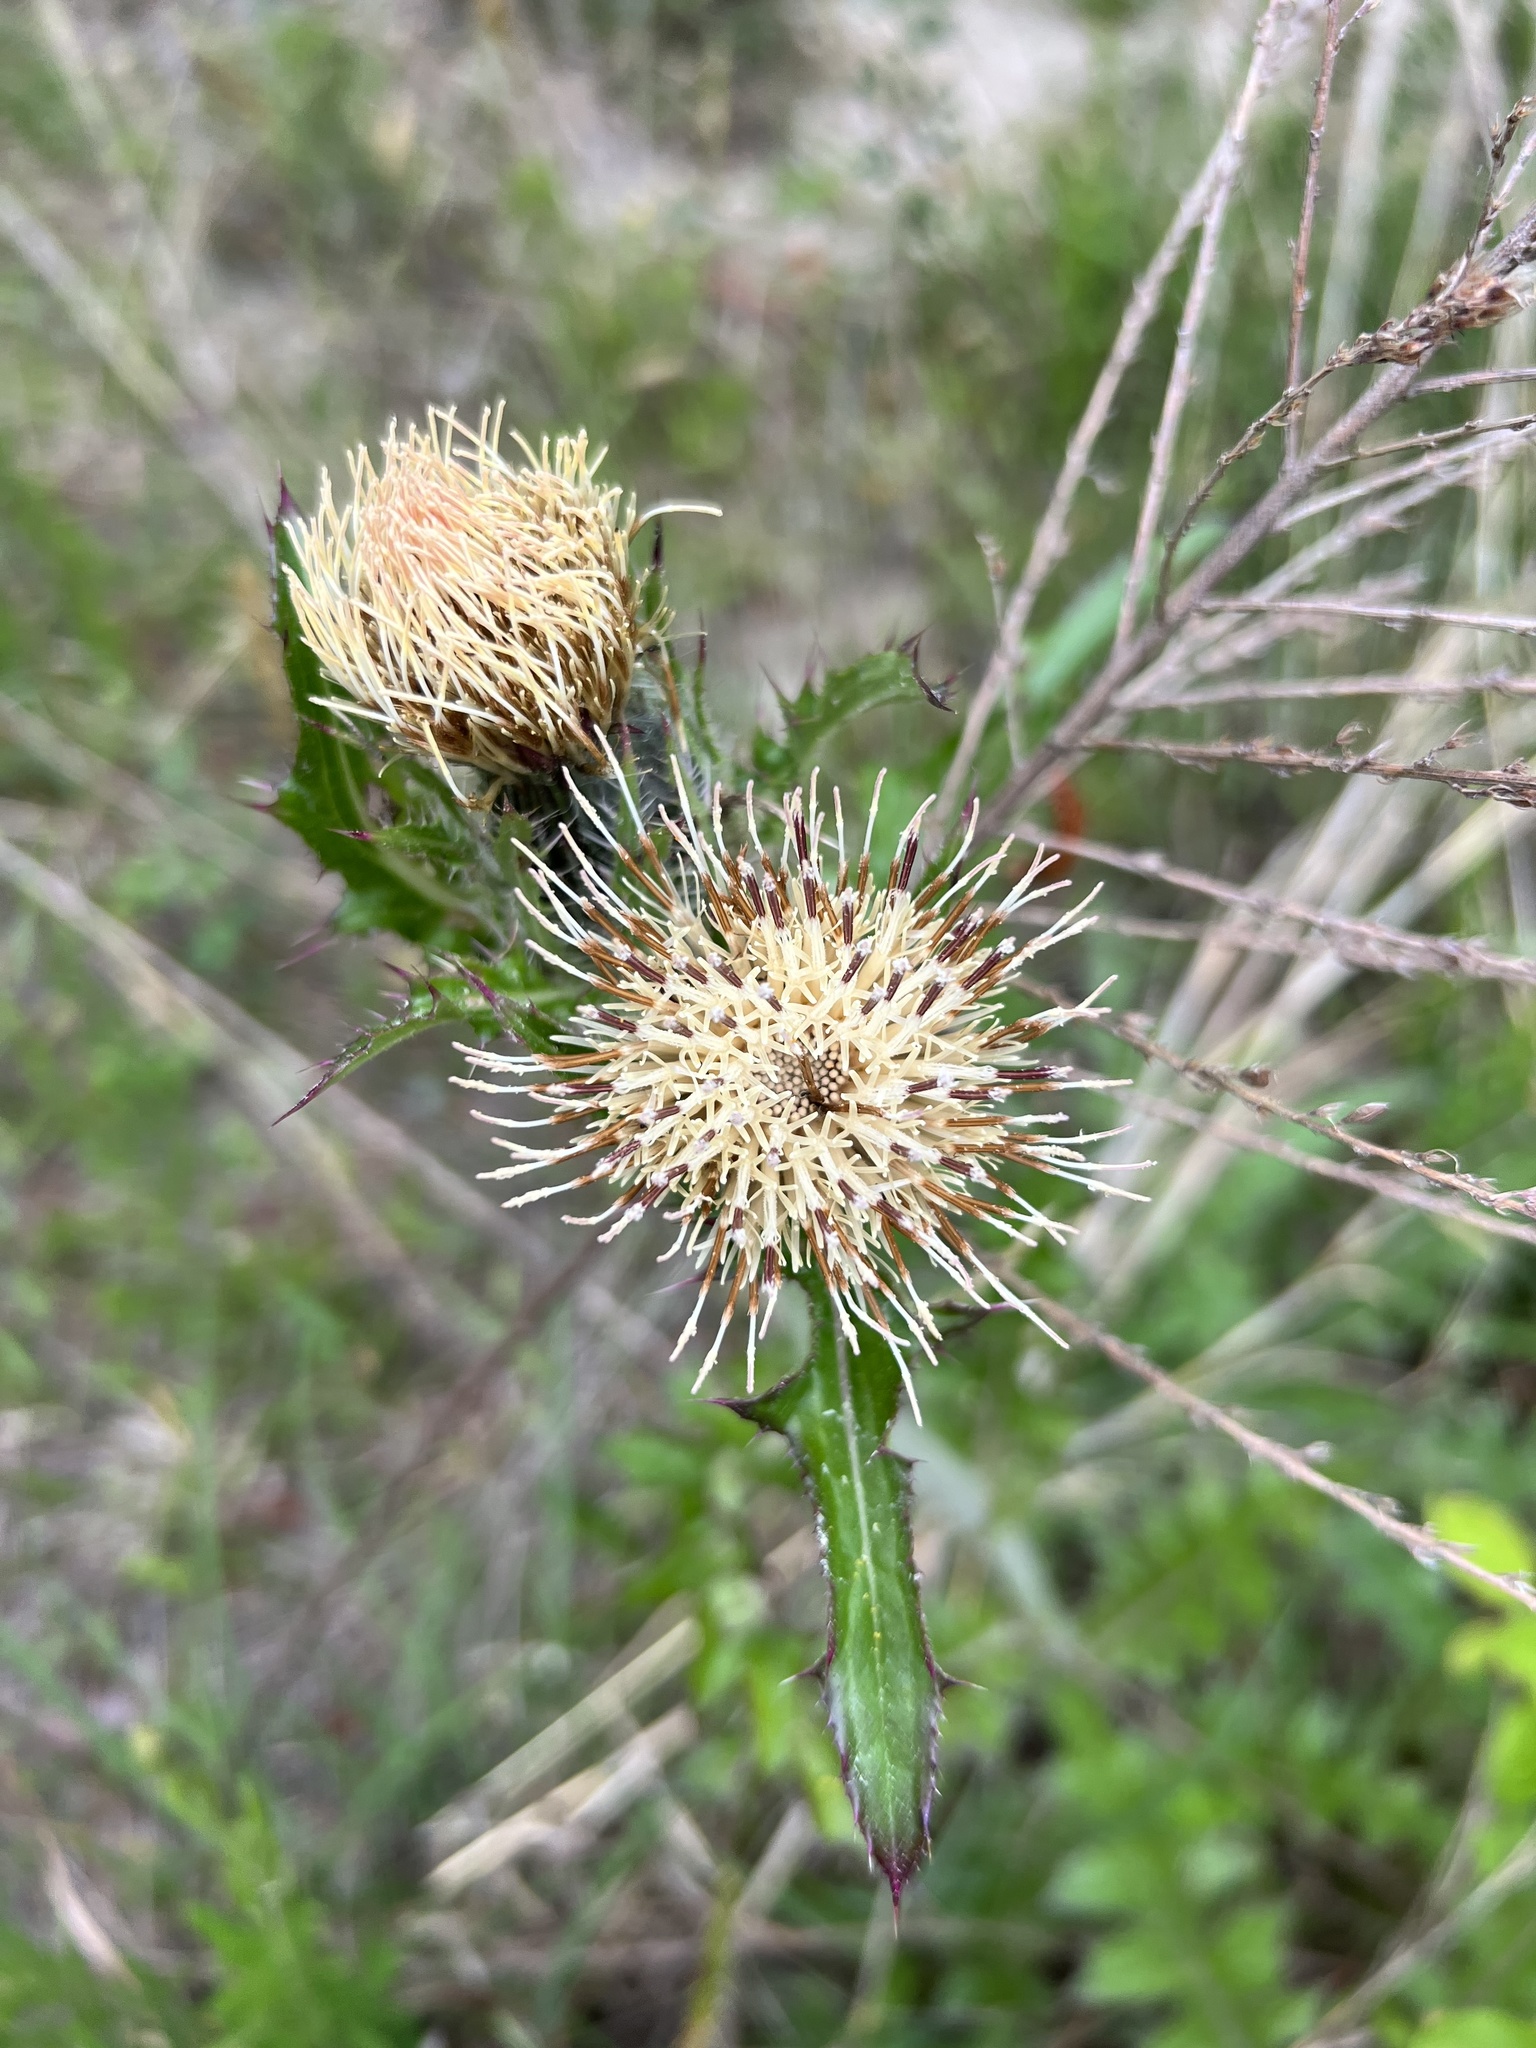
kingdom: Plantae
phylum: Tracheophyta
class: Magnoliopsida
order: Asterales
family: Asteraceae
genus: Cirsium
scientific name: Cirsium horridulum
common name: Bristly thistle
